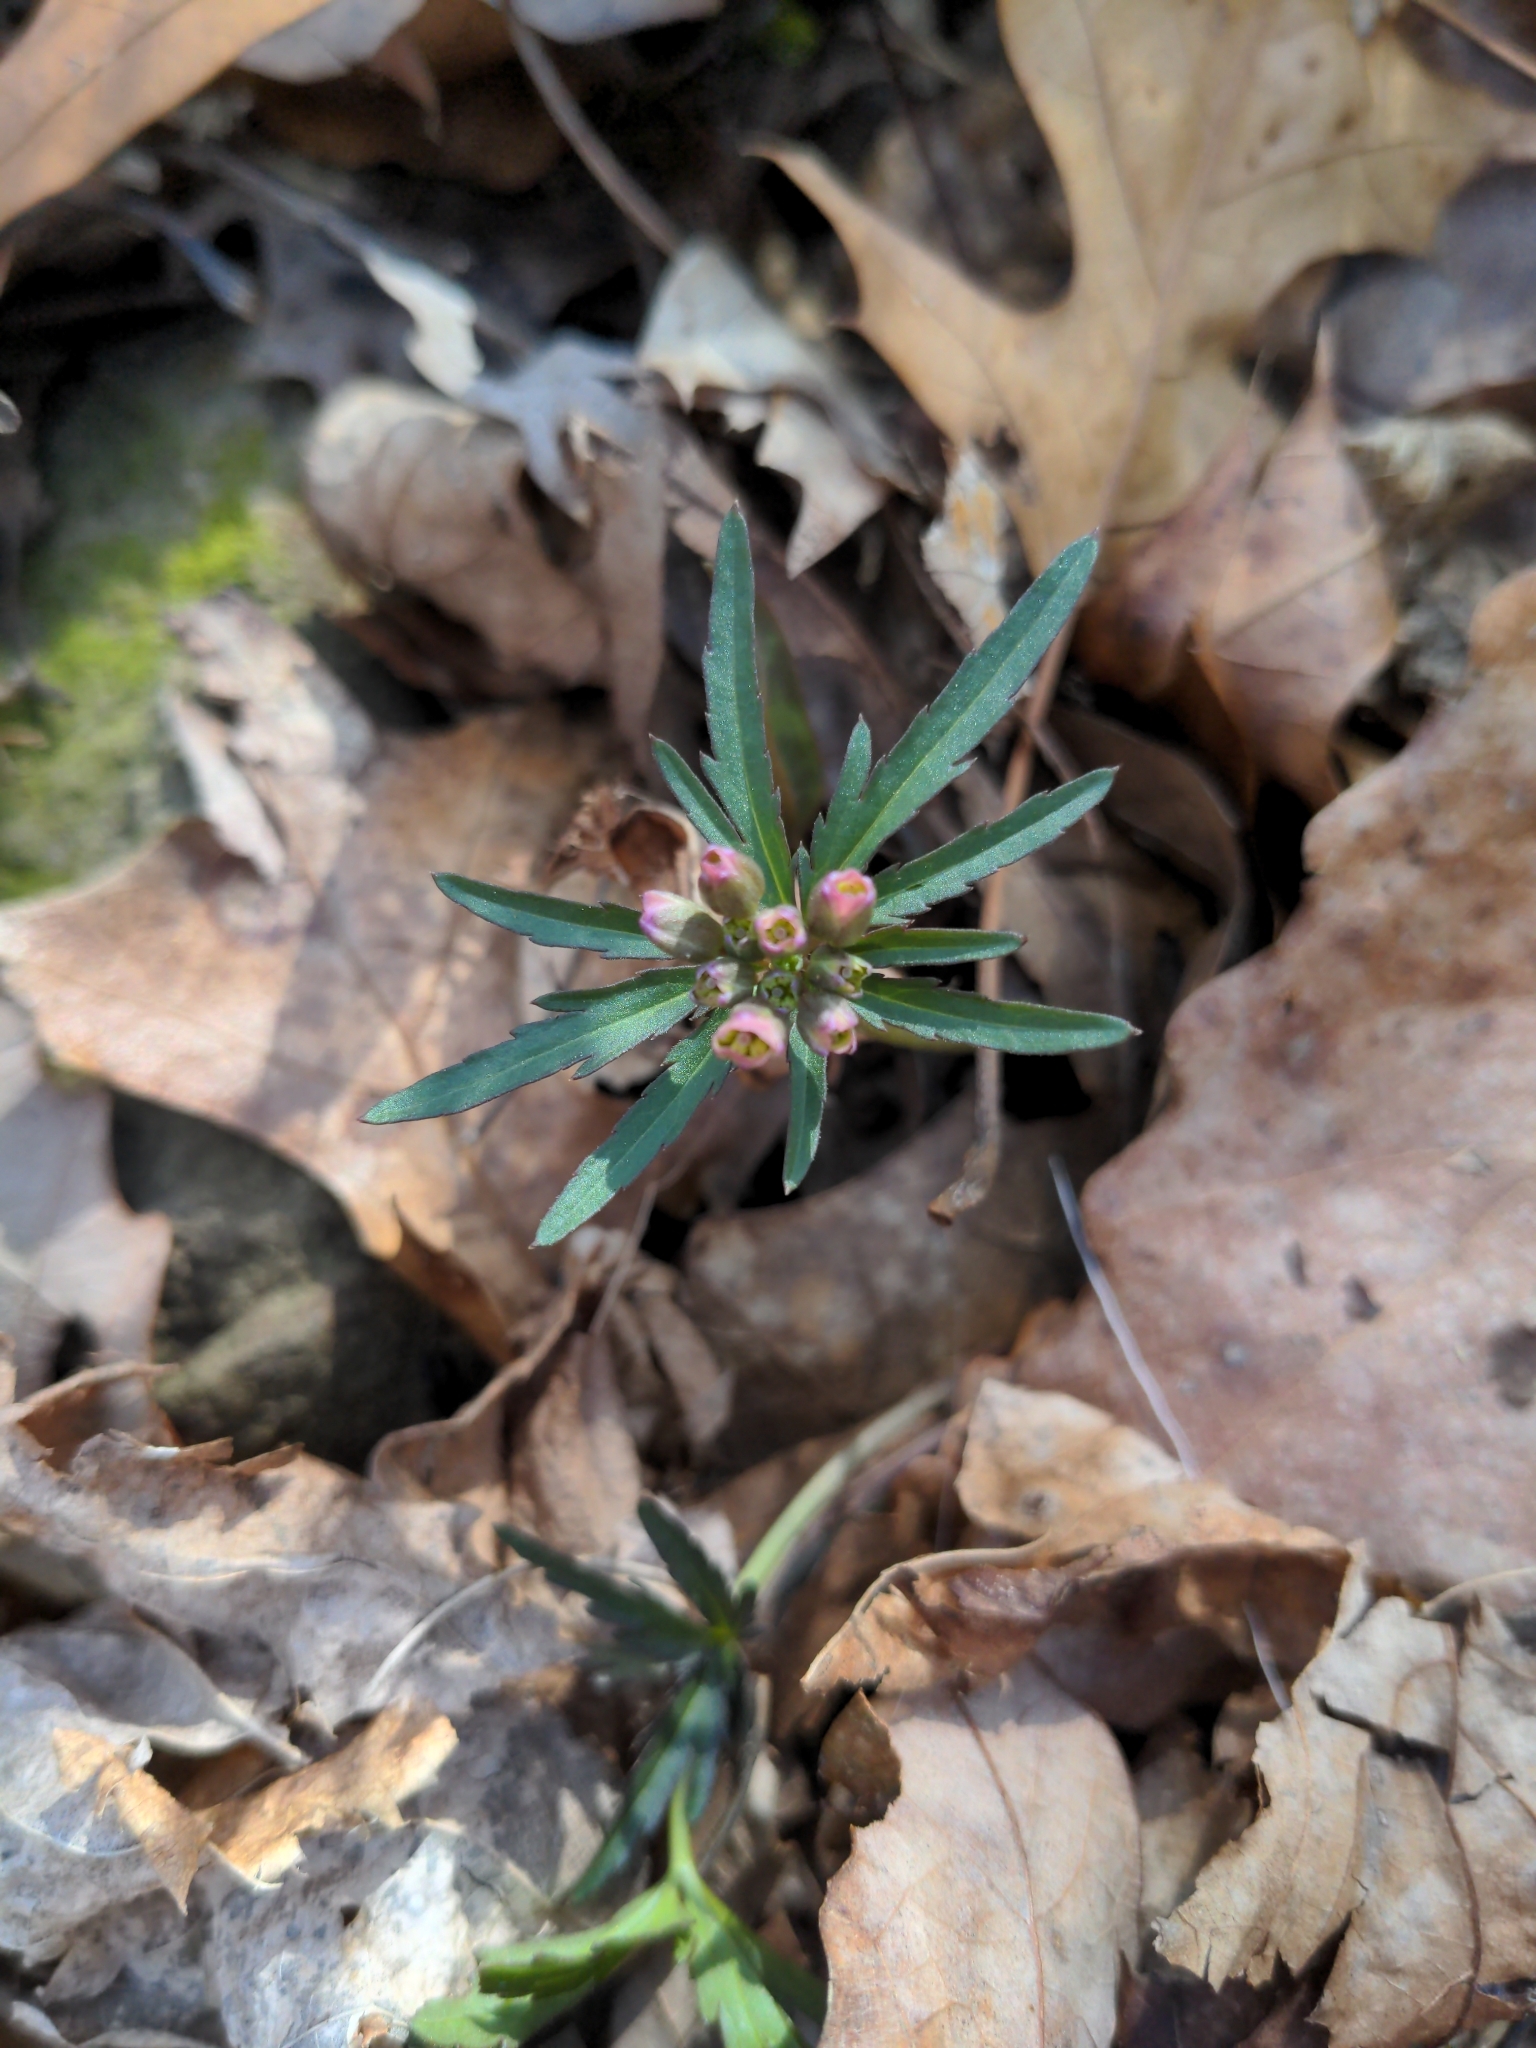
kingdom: Plantae
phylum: Tracheophyta
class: Magnoliopsida
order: Brassicales
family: Brassicaceae
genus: Cardamine
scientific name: Cardamine concatenata
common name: Cut-leaf toothcup
